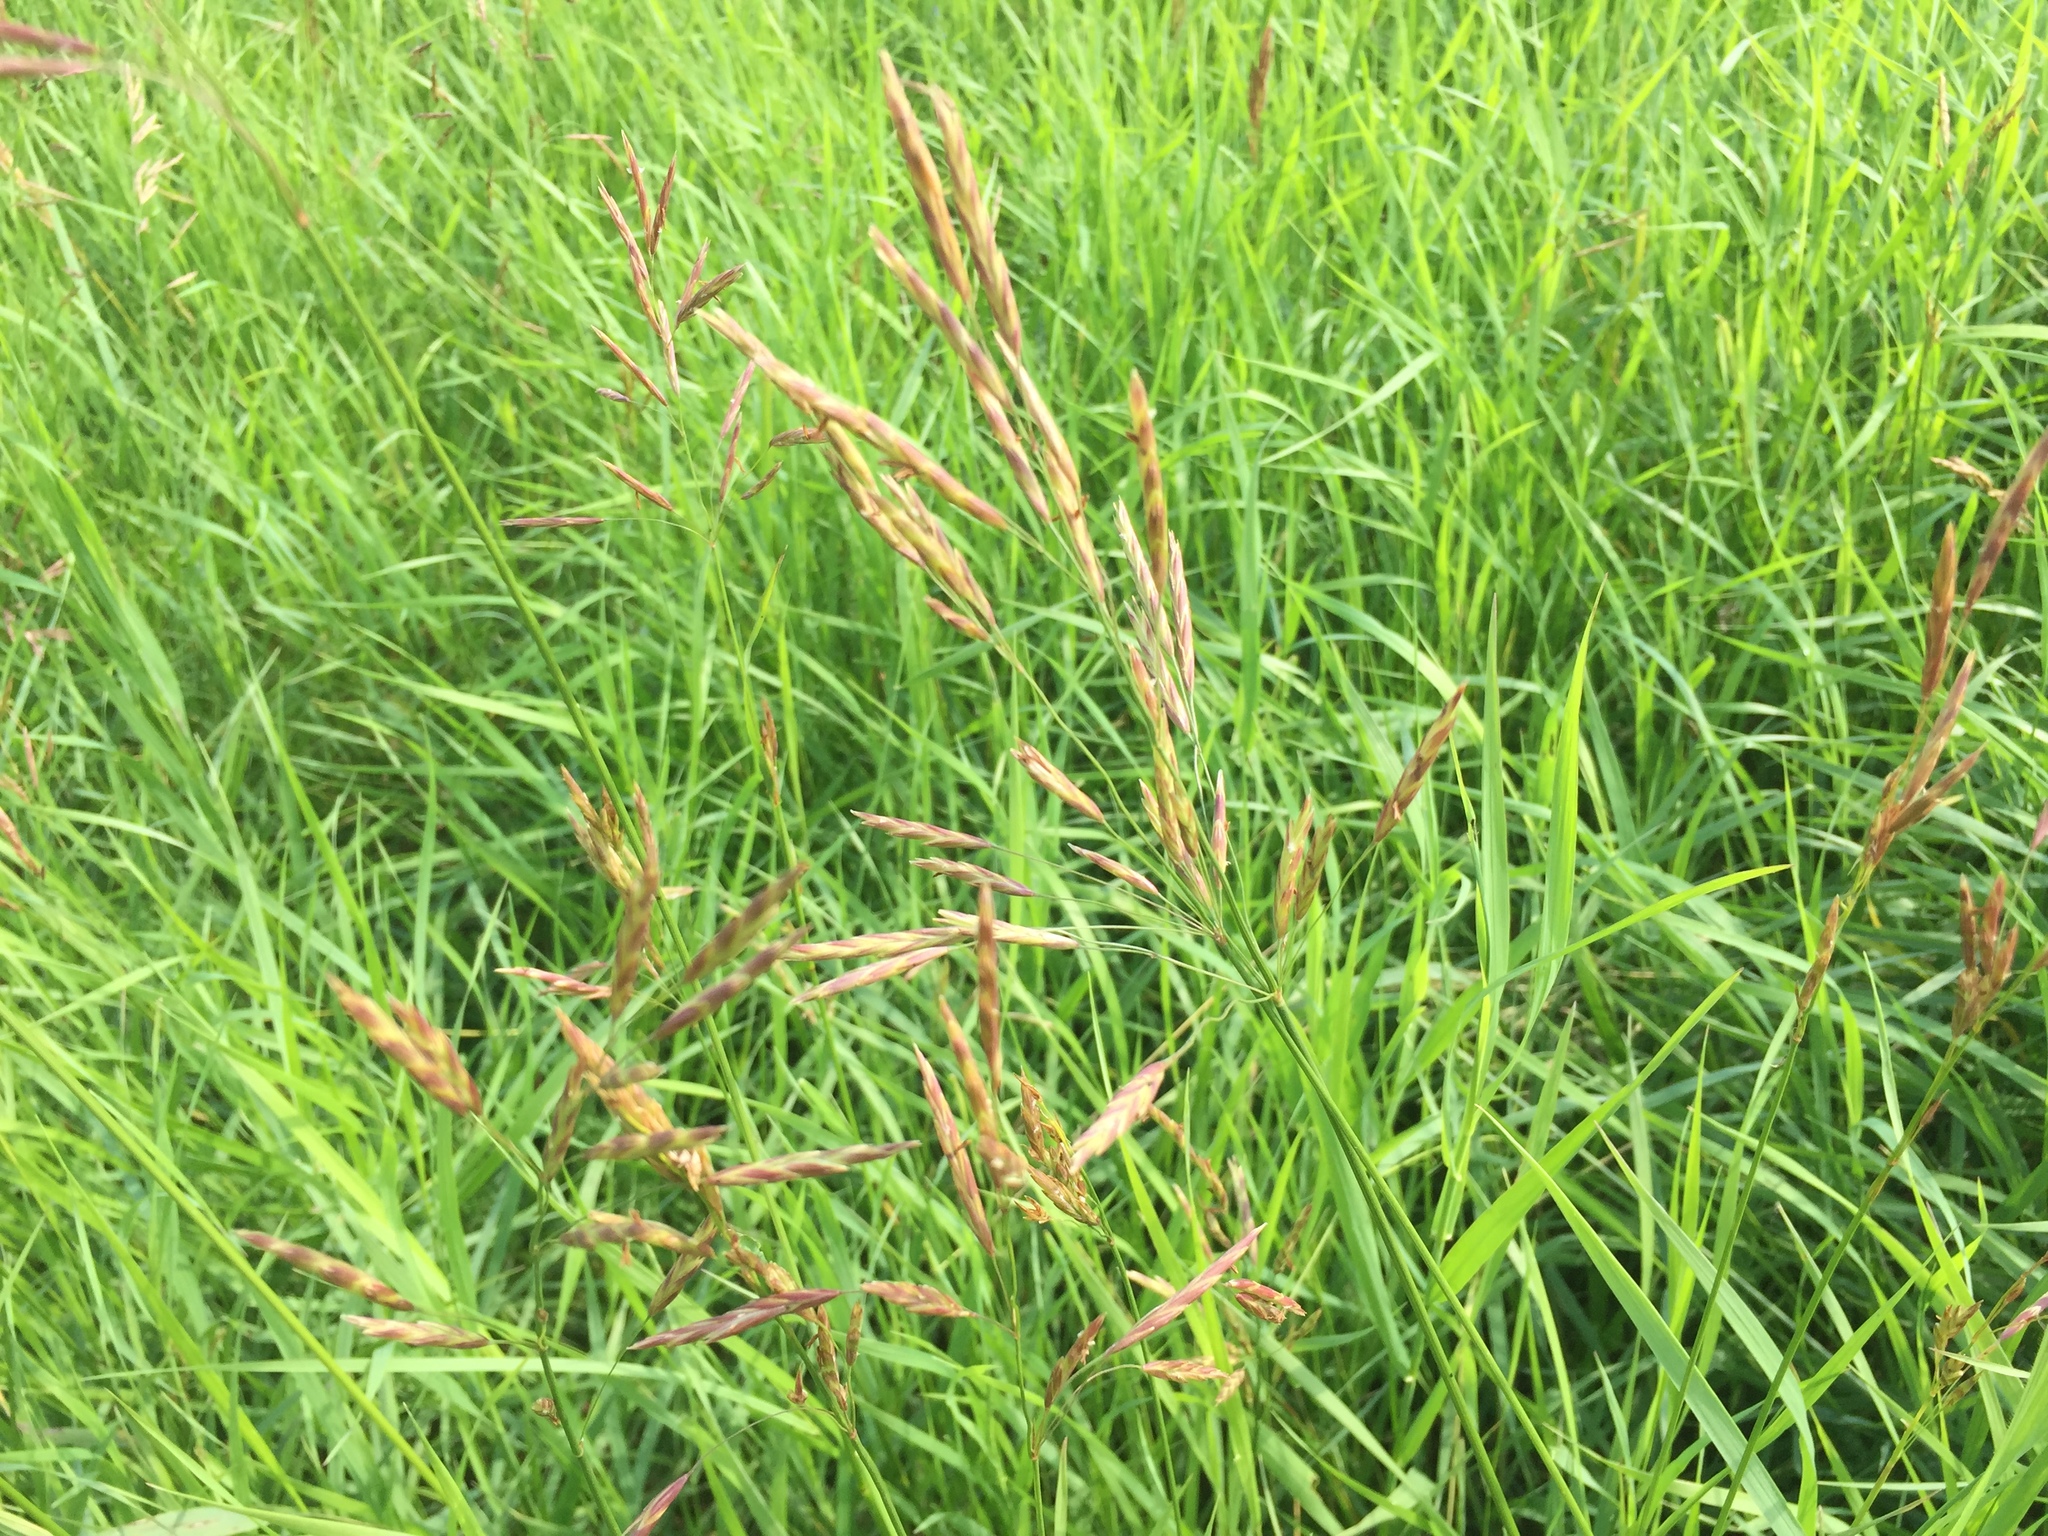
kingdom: Plantae
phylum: Tracheophyta
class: Liliopsida
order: Poales
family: Poaceae
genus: Bromus
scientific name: Bromus inermis
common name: Smooth brome
